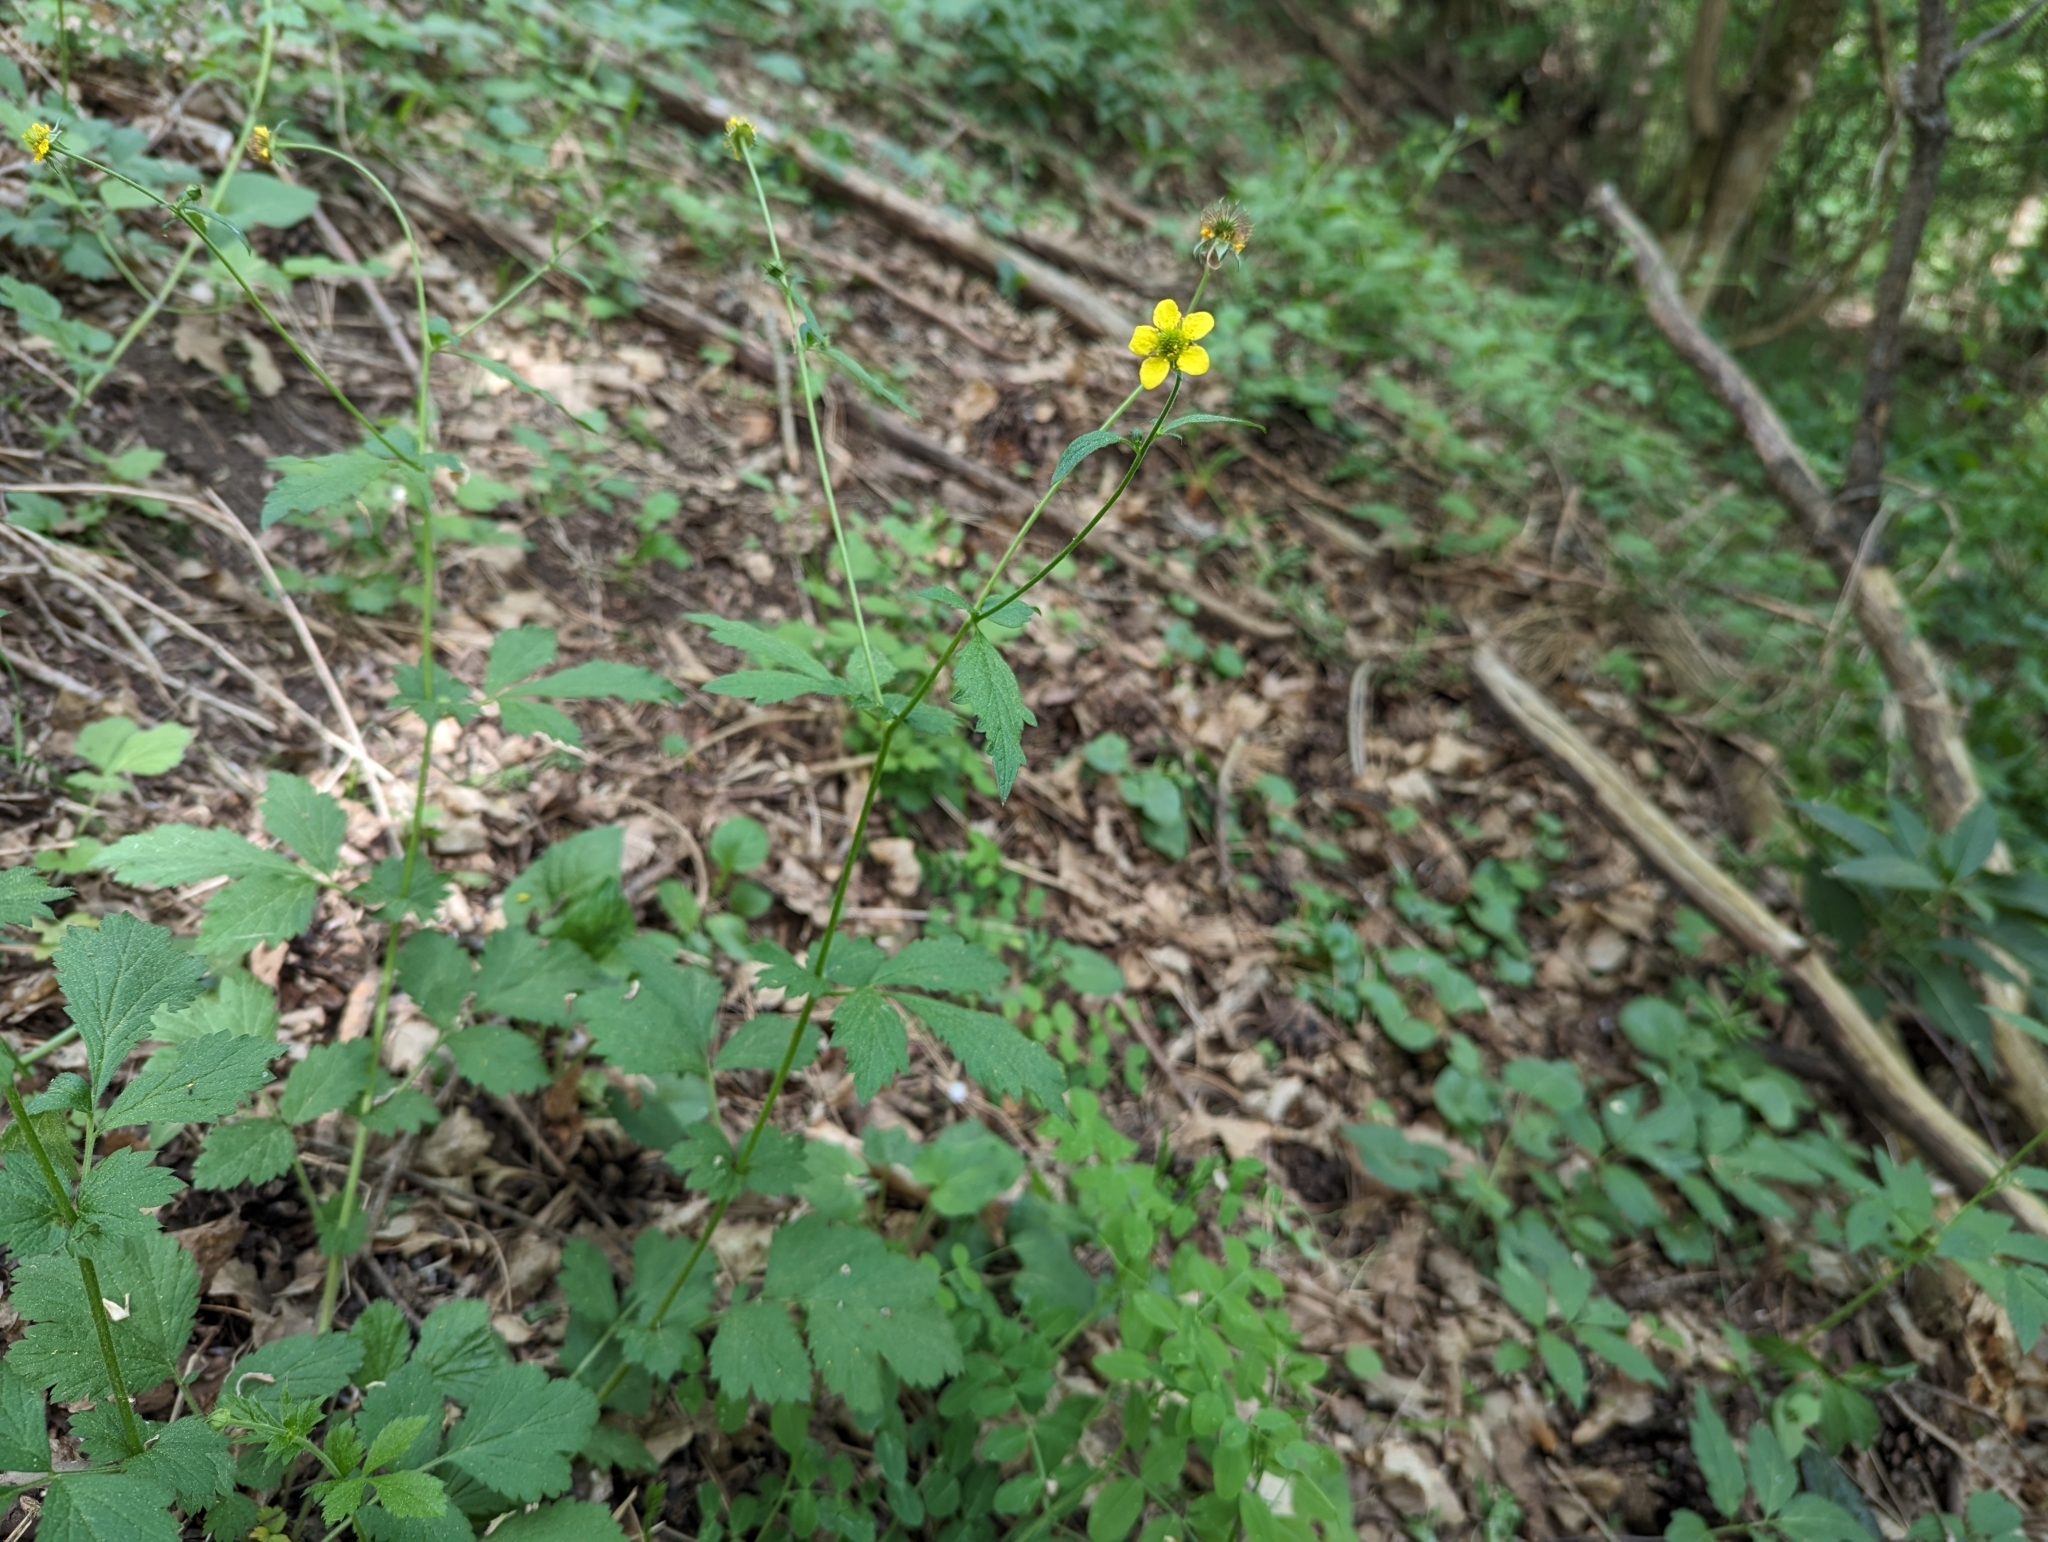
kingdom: Plantae
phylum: Tracheophyta
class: Magnoliopsida
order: Rosales
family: Rosaceae
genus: Geum
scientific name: Geum urbanum
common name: Wood avens
